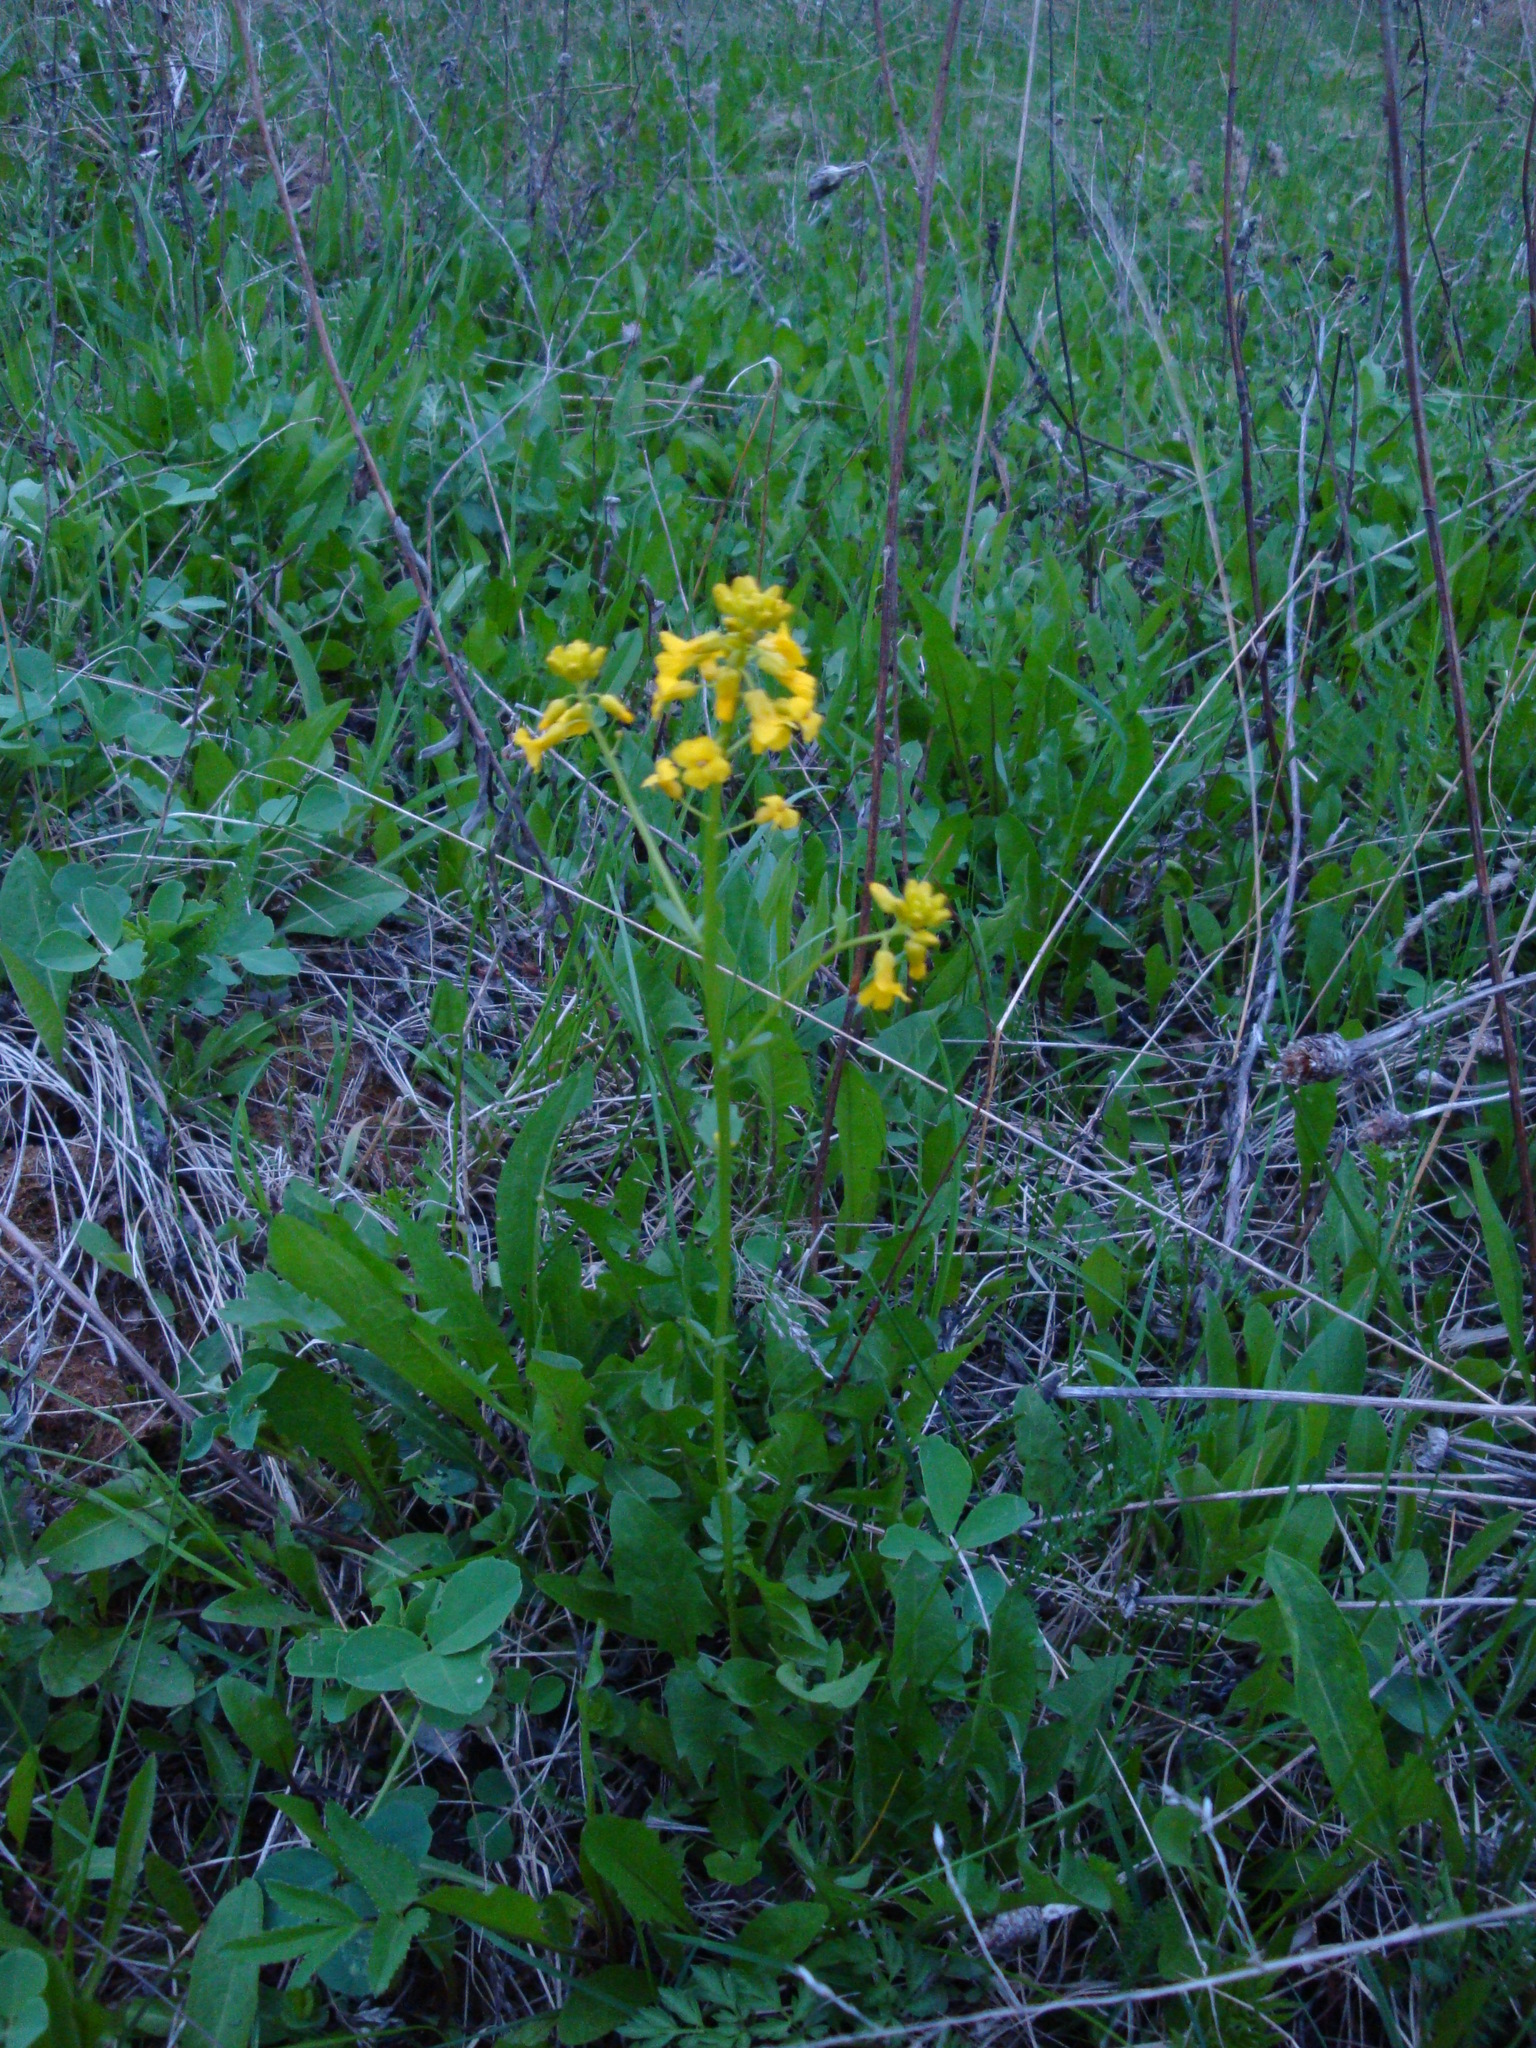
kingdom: Plantae
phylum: Tracheophyta
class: Magnoliopsida
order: Brassicales
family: Brassicaceae
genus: Barbarea
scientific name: Barbarea vulgaris
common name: Cressy-greens
